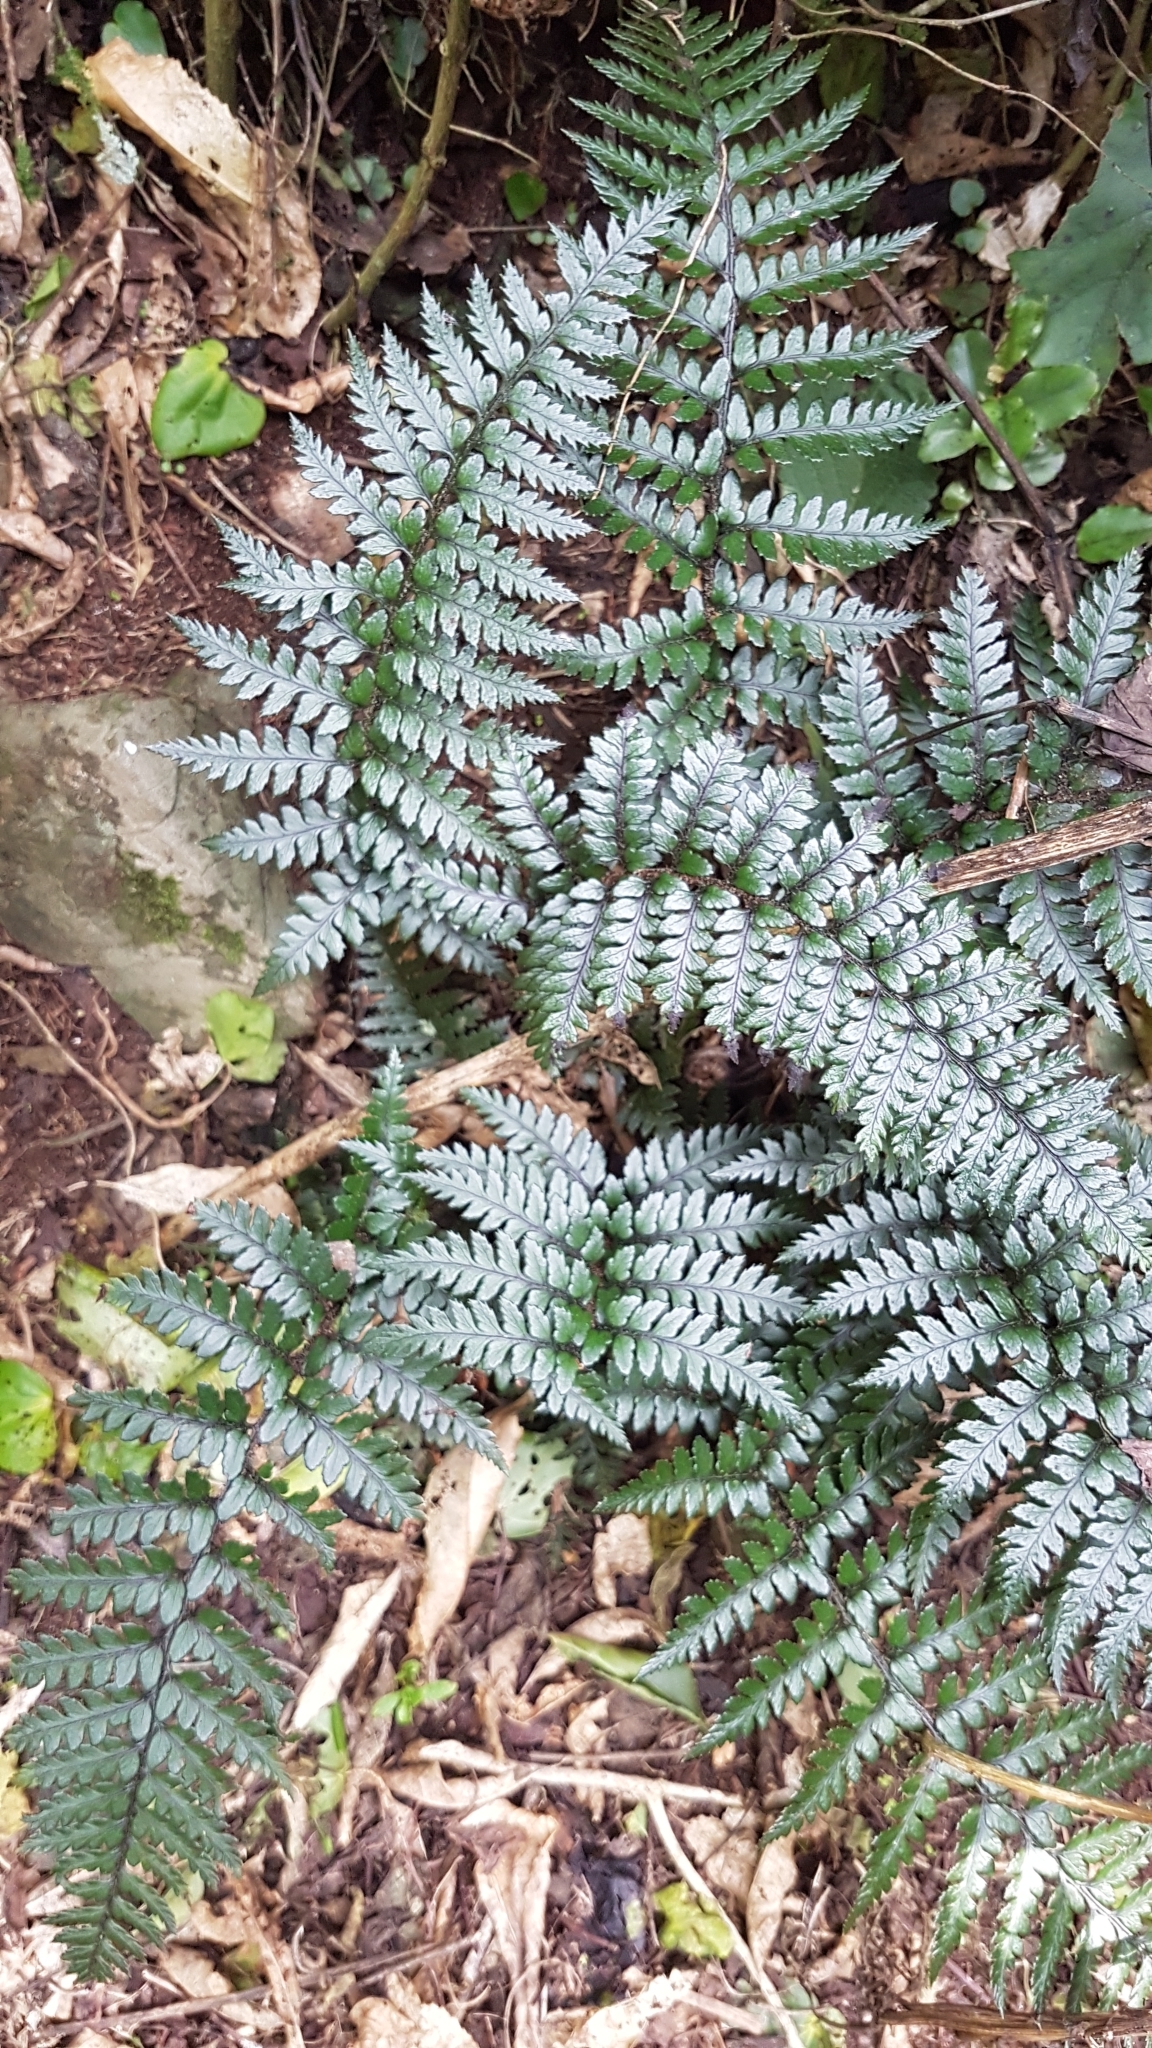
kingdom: Plantae
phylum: Tracheophyta
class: Polypodiopsida
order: Polypodiales
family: Dryopteridaceae
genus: Polystichum
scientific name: Polystichum neozelandicum
